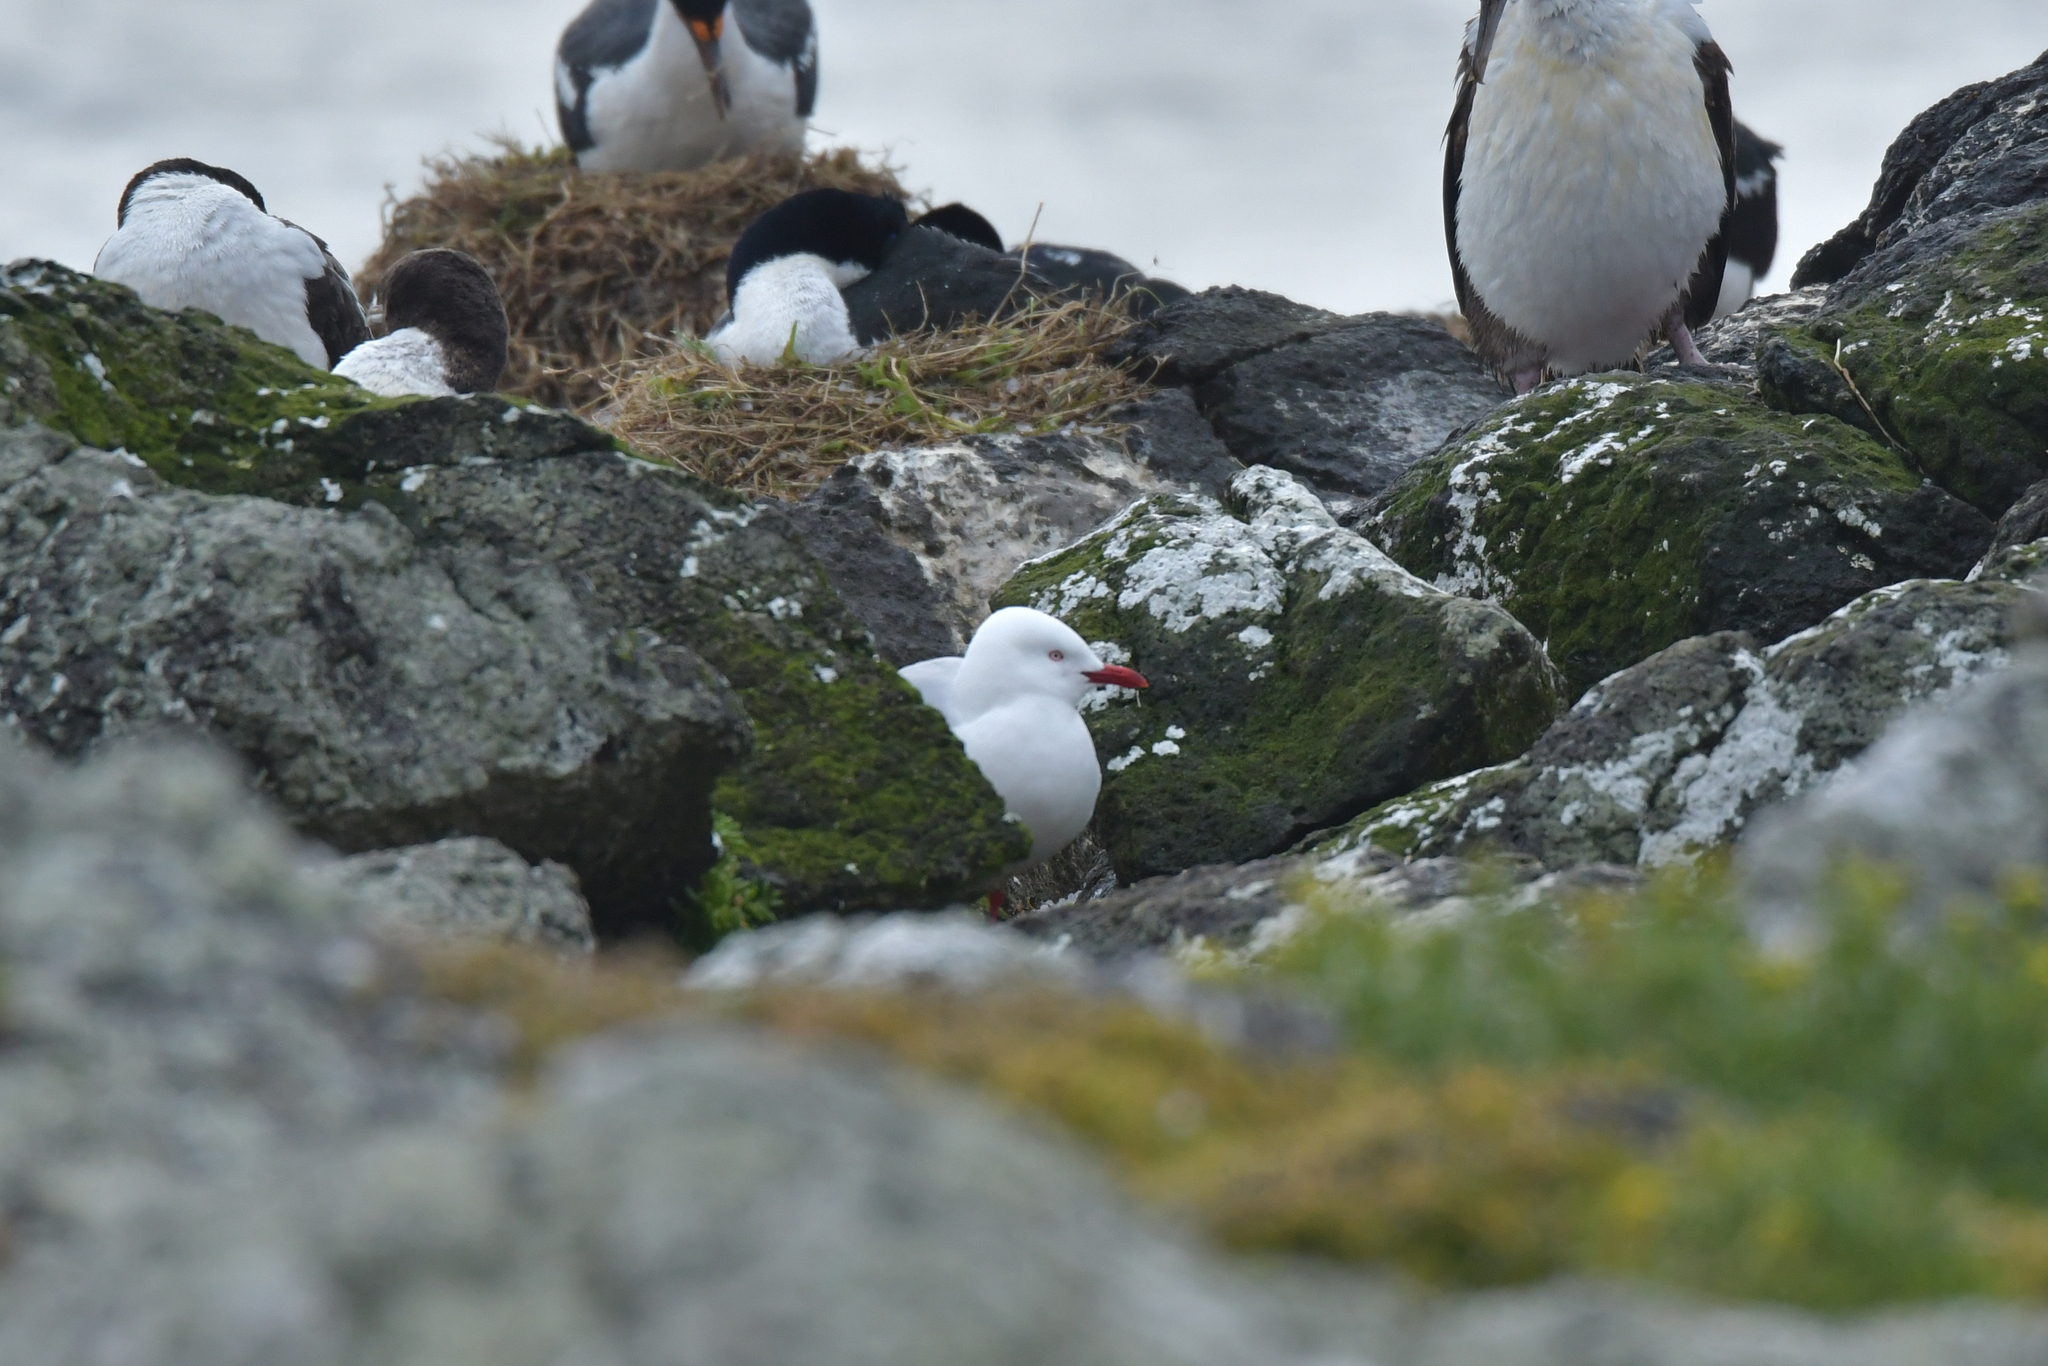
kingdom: Animalia
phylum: Chordata
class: Aves
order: Charadriiformes
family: Laridae
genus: Chroicocephalus
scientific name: Chroicocephalus novaehollandiae
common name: Silver gull
